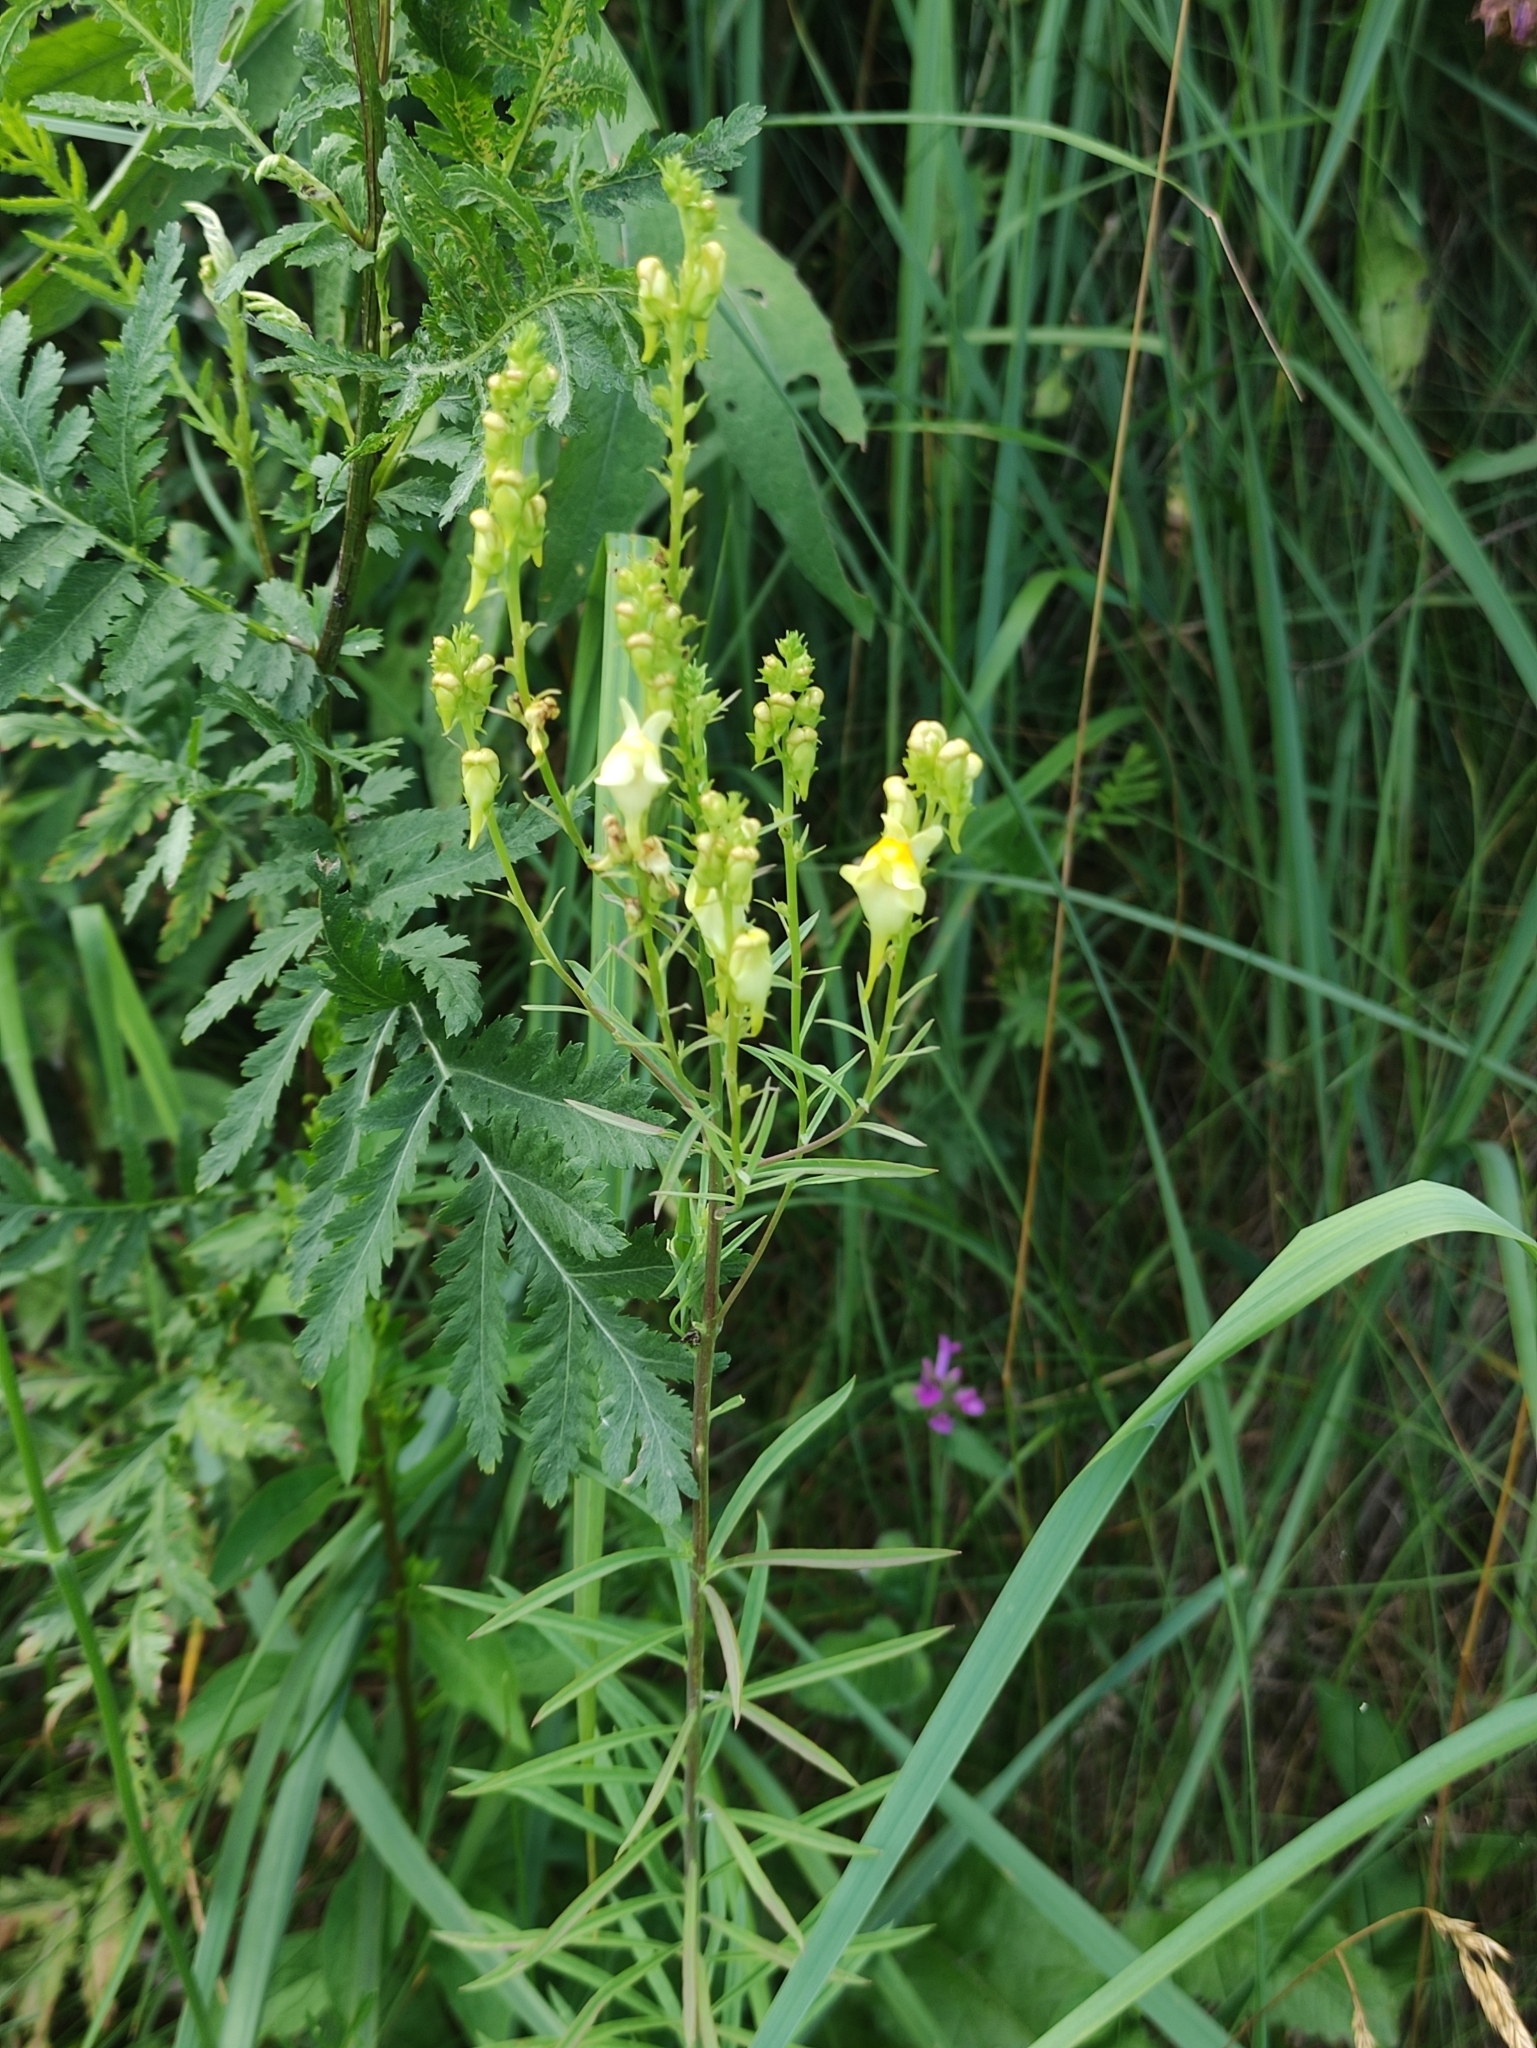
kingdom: Plantae
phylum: Tracheophyta
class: Magnoliopsida
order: Lamiales
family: Plantaginaceae
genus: Linaria
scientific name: Linaria vulgaris
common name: Butter and eggs
